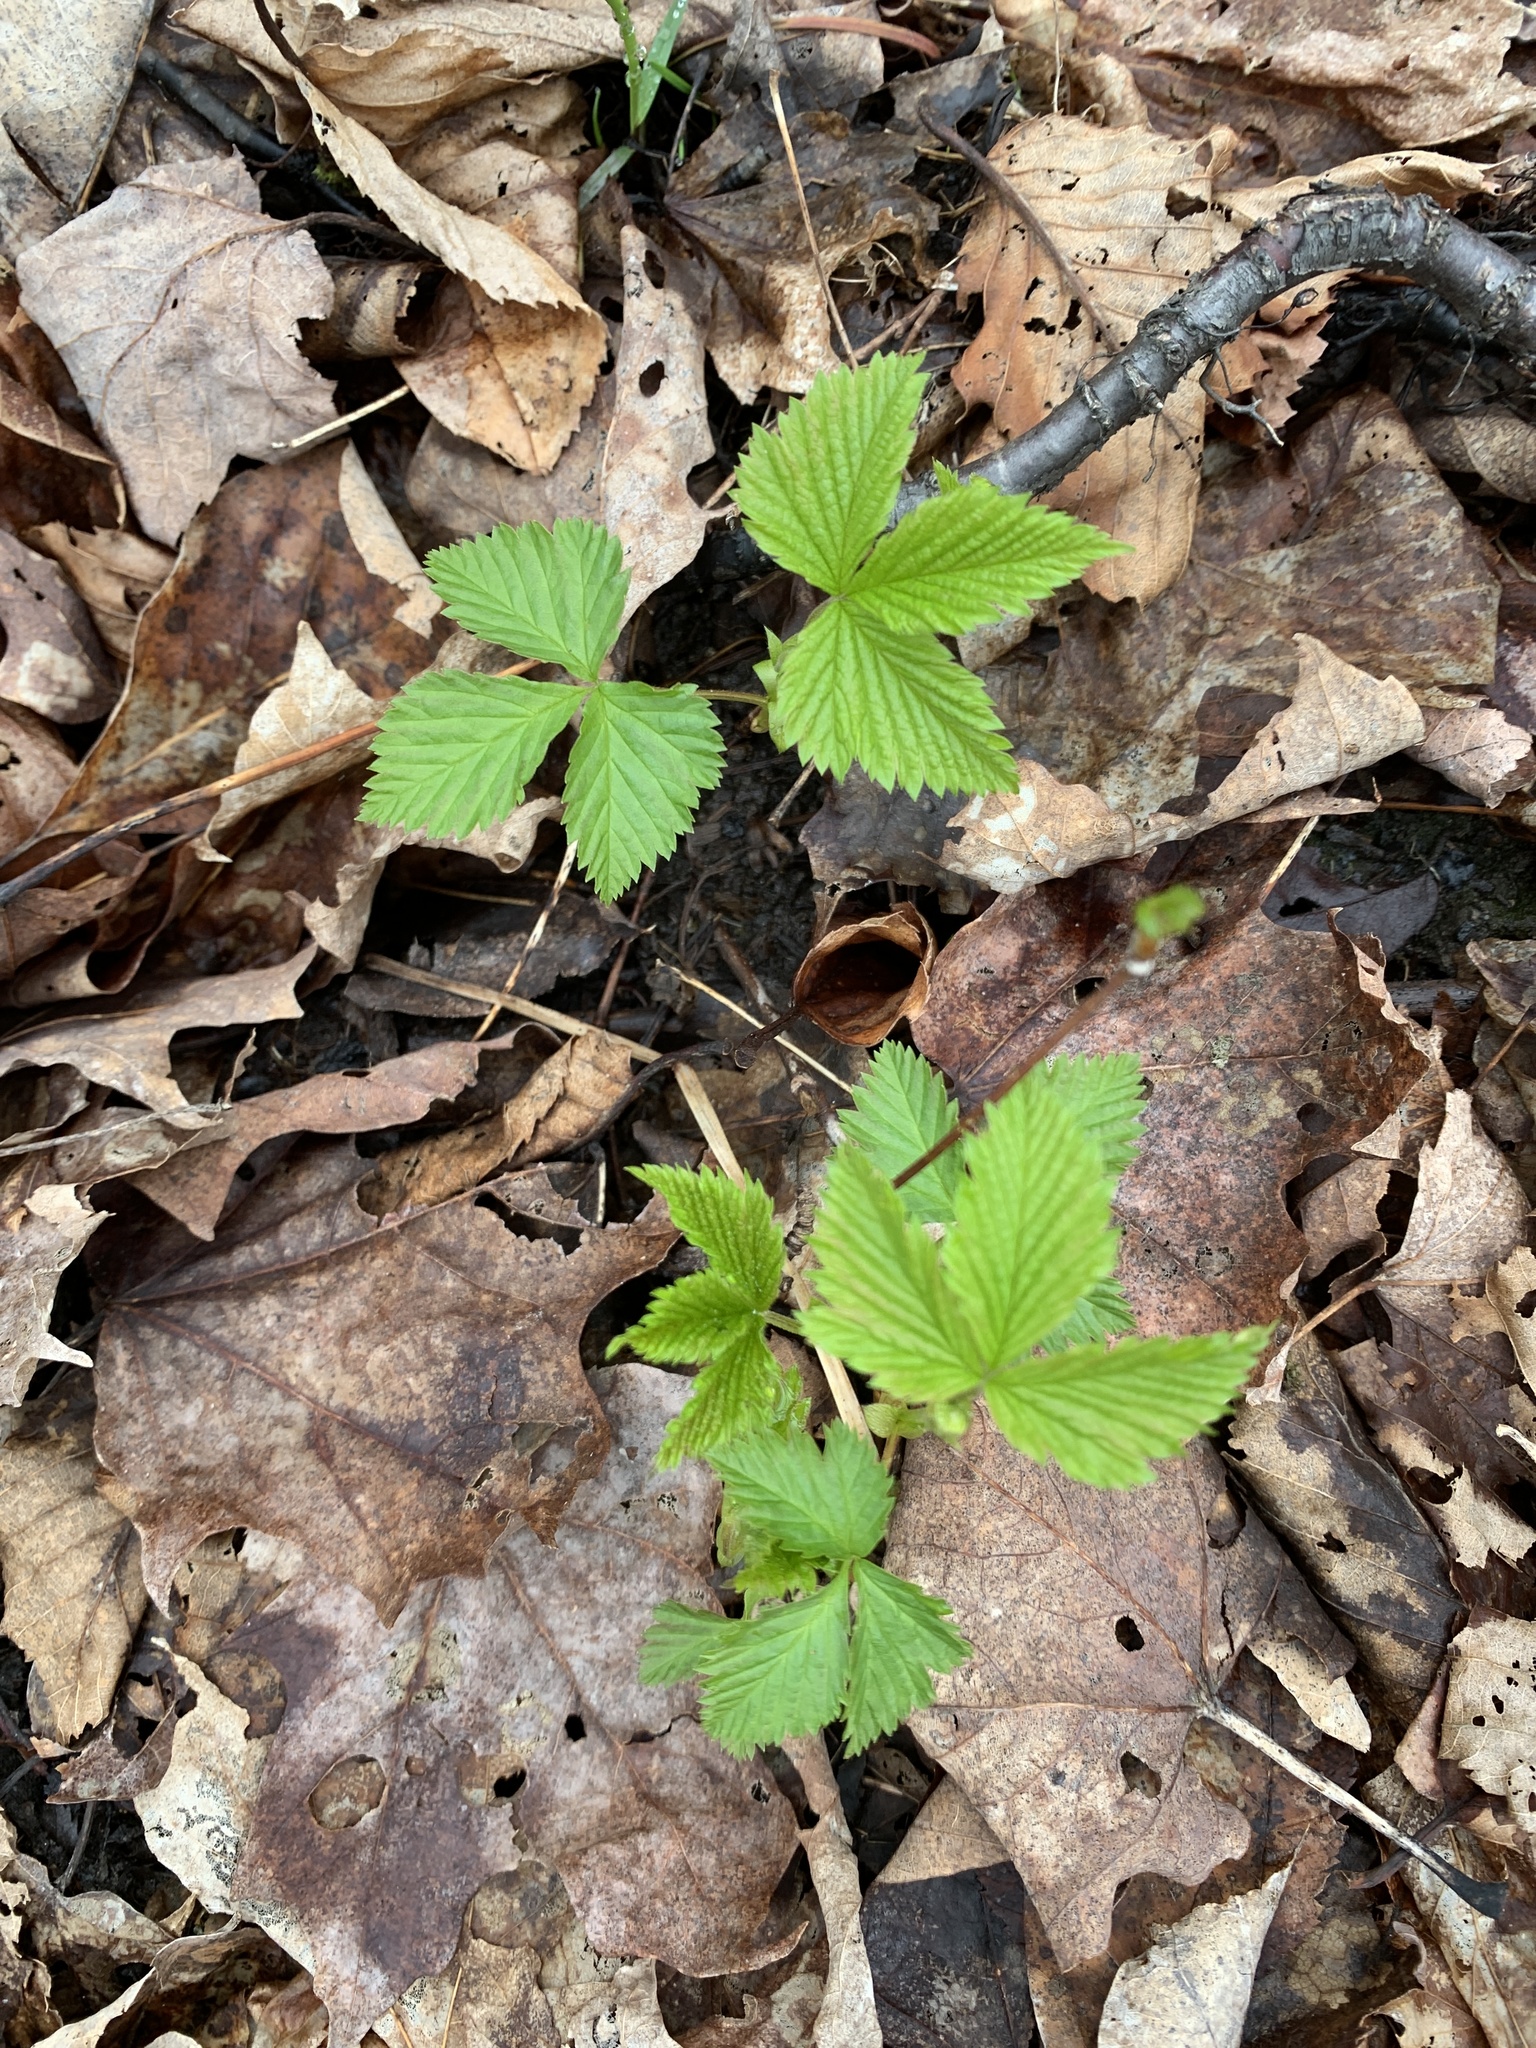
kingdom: Plantae
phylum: Tracheophyta
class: Magnoliopsida
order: Rosales
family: Rosaceae
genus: Rubus
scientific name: Rubus pubescens
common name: Dwarf raspberry
